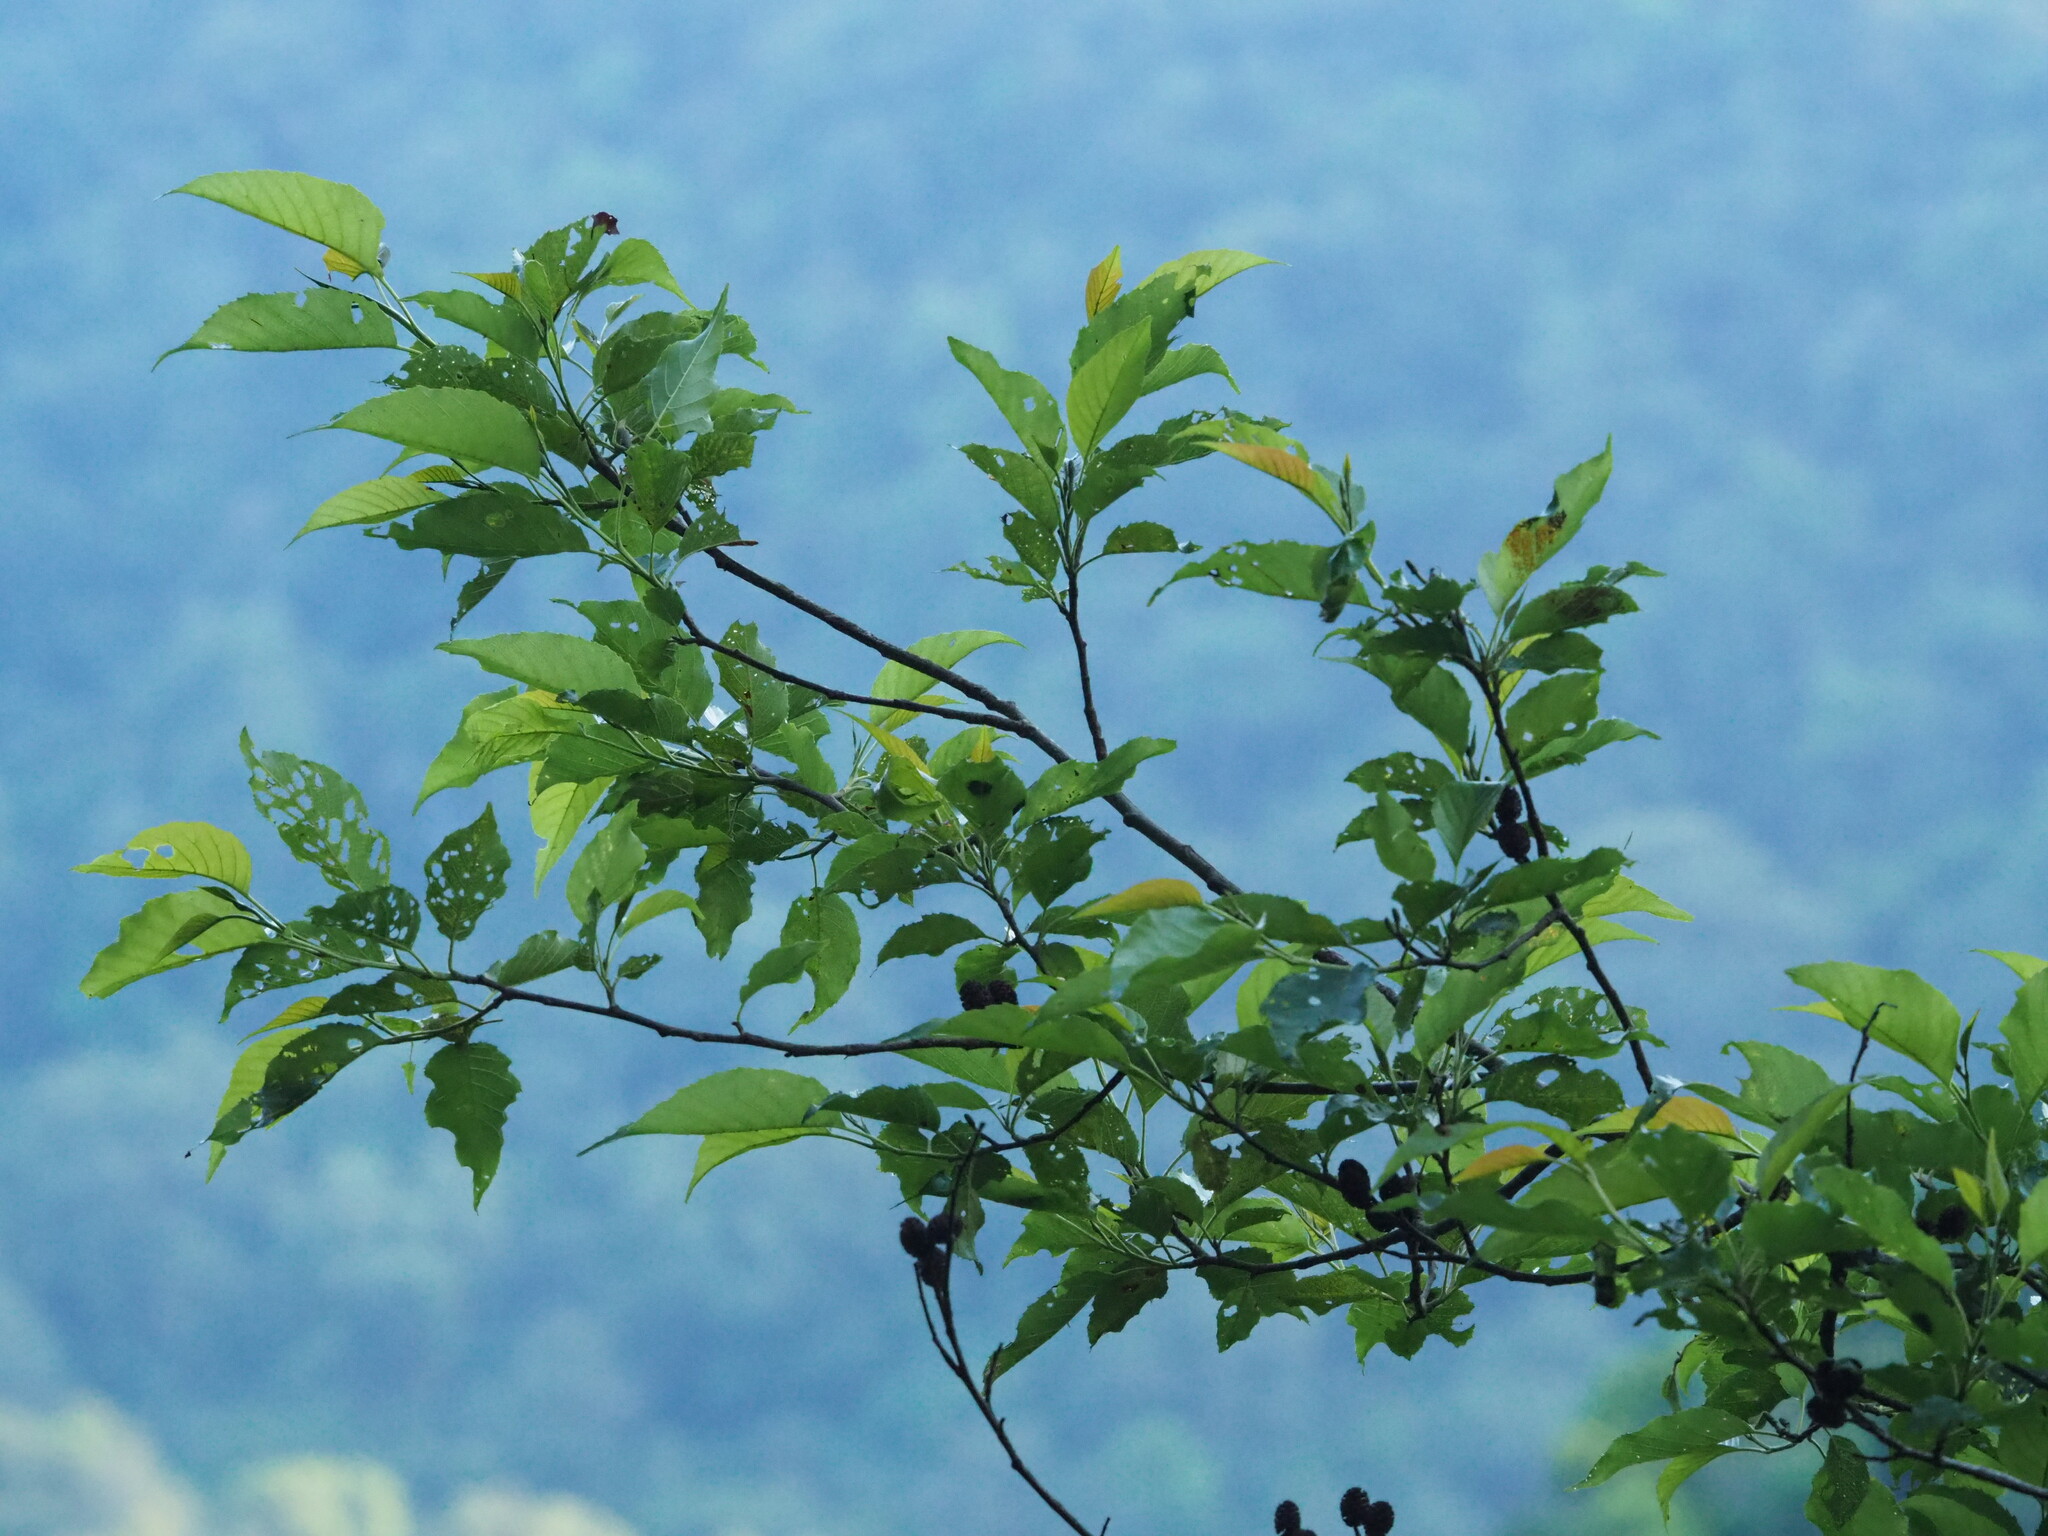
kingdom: Plantae
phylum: Tracheophyta
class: Magnoliopsida
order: Fagales
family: Betulaceae
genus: Alnus
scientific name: Alnus formosana
